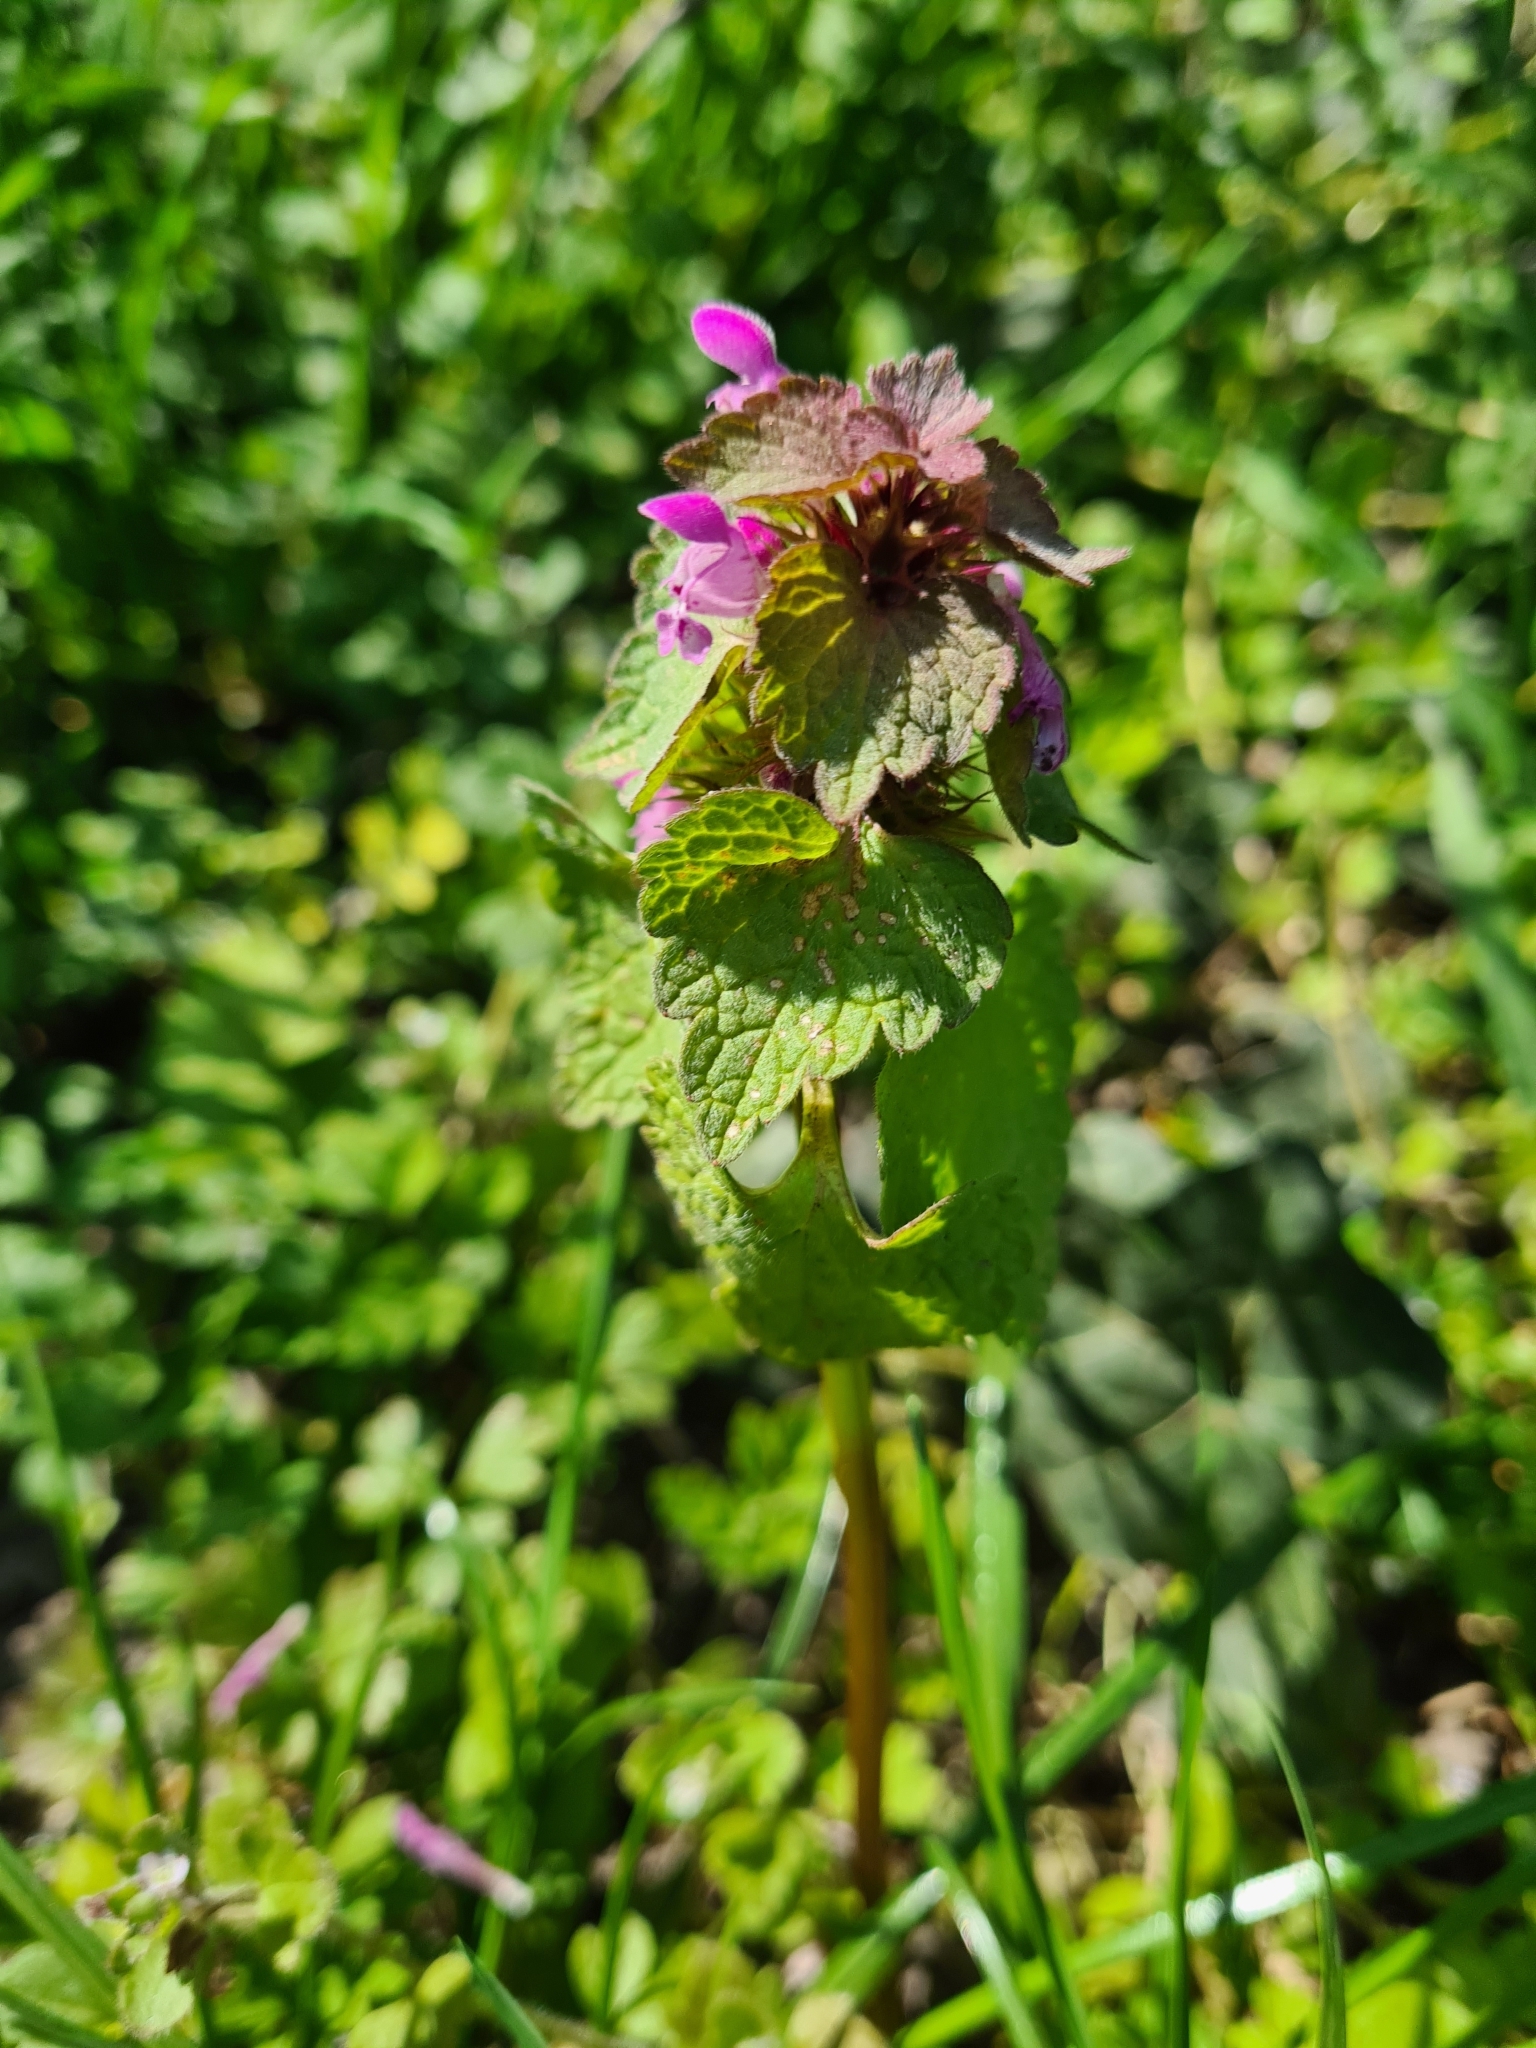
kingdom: Plantae
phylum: Tracheophyta
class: Magnoliopsida
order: Lamiales
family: Lamiaceae
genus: Lamium
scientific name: Lamium purpureum
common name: Red dead-nettle
